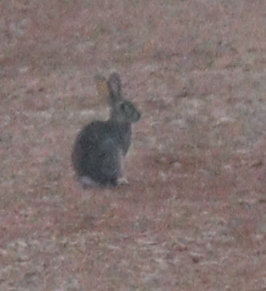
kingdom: Animalia
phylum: Chordata
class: Mammalia
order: Lagomorpha
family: Leporidae
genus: Oryctolagus
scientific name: Oryctolagus cuniculus
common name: European rabbit
